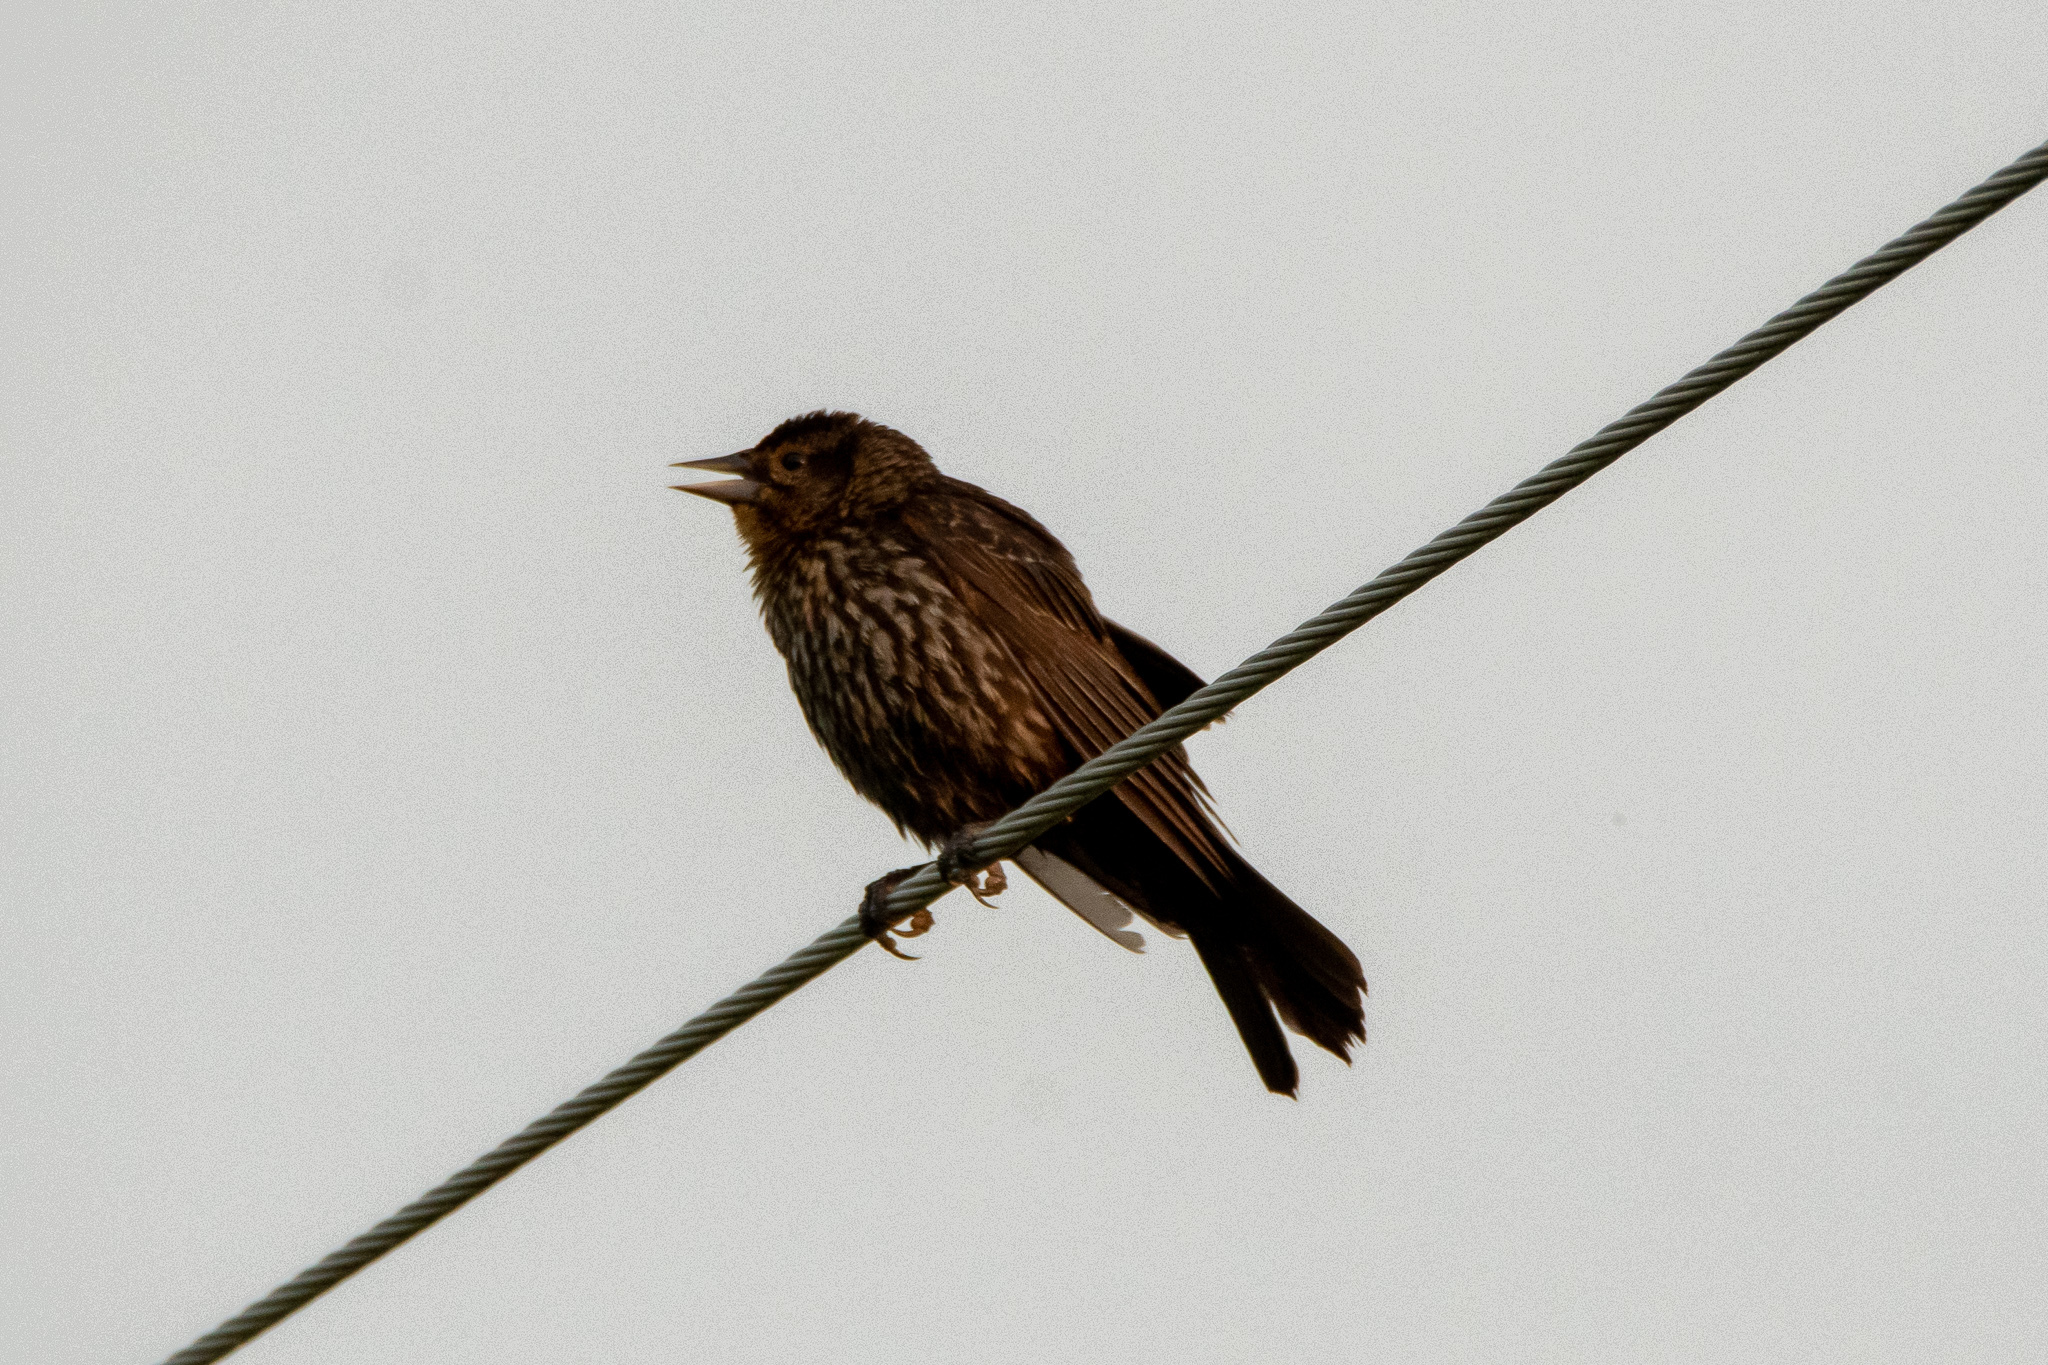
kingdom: Animalia
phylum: Chordata
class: Aves
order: Passeriformes
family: Icteridae
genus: Agelaius
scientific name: Agelaius phoeniceus
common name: Red-winged blackbird
